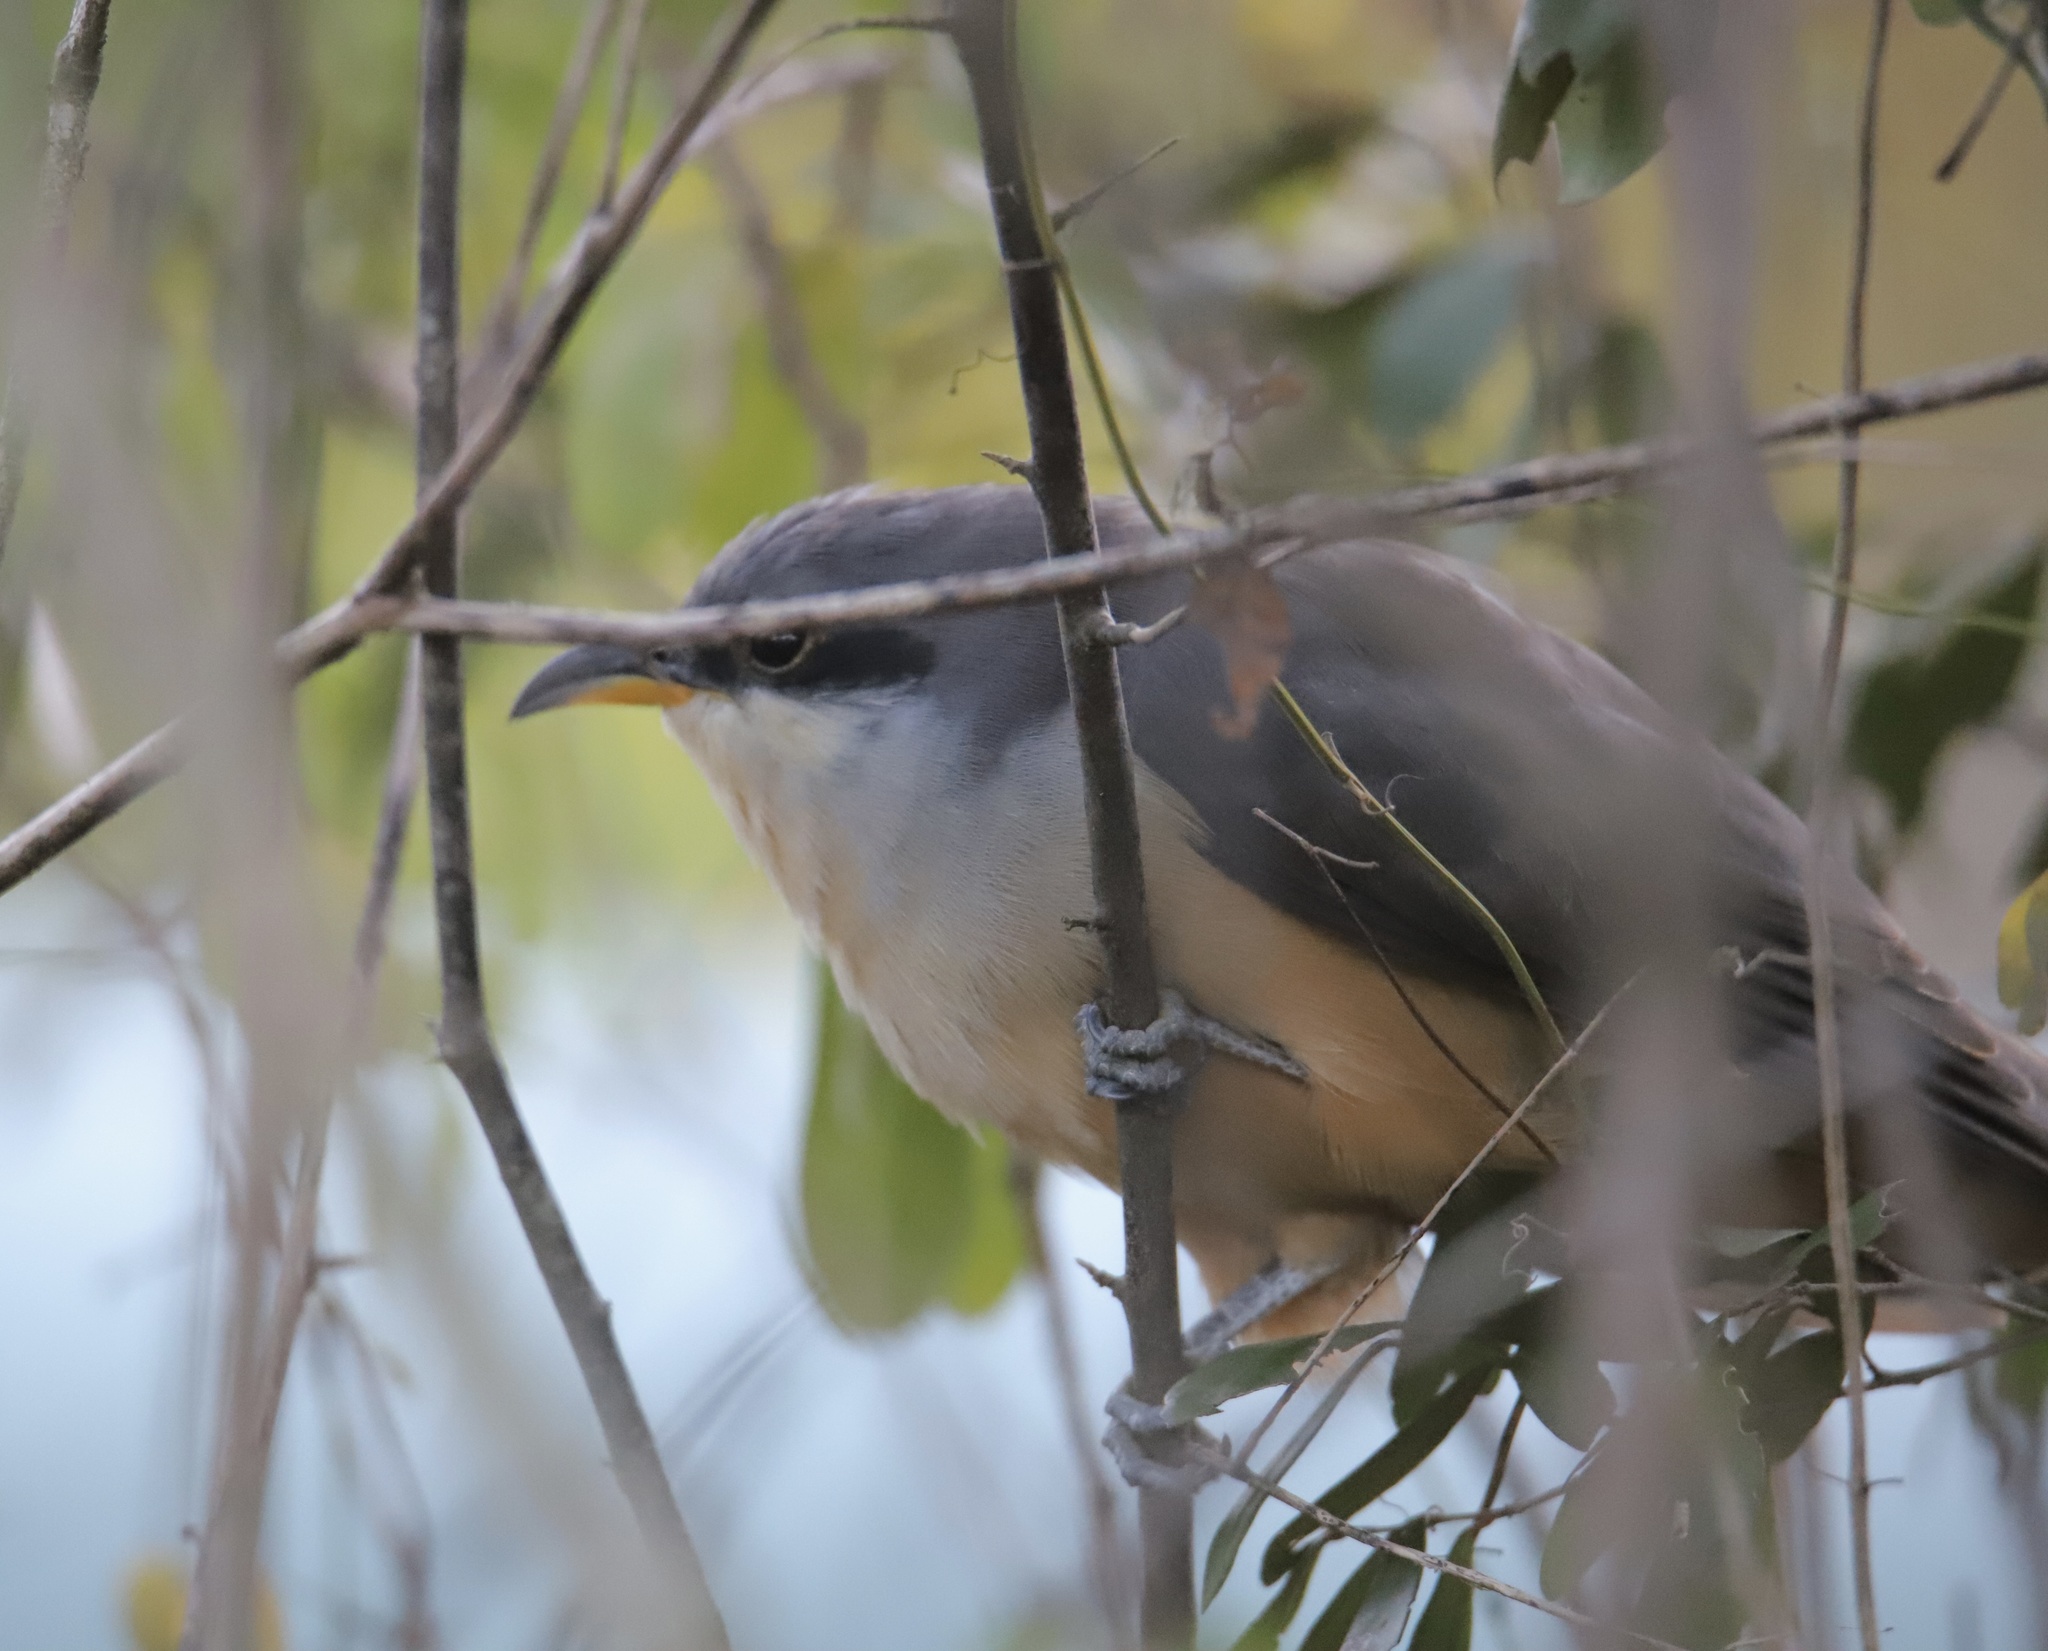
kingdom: Animalia
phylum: Chordata
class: Aves
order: Cuculiformes
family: Cuculidae
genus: Coccyzus
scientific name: Coccyzus minor
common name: Mangrove cuckoo
